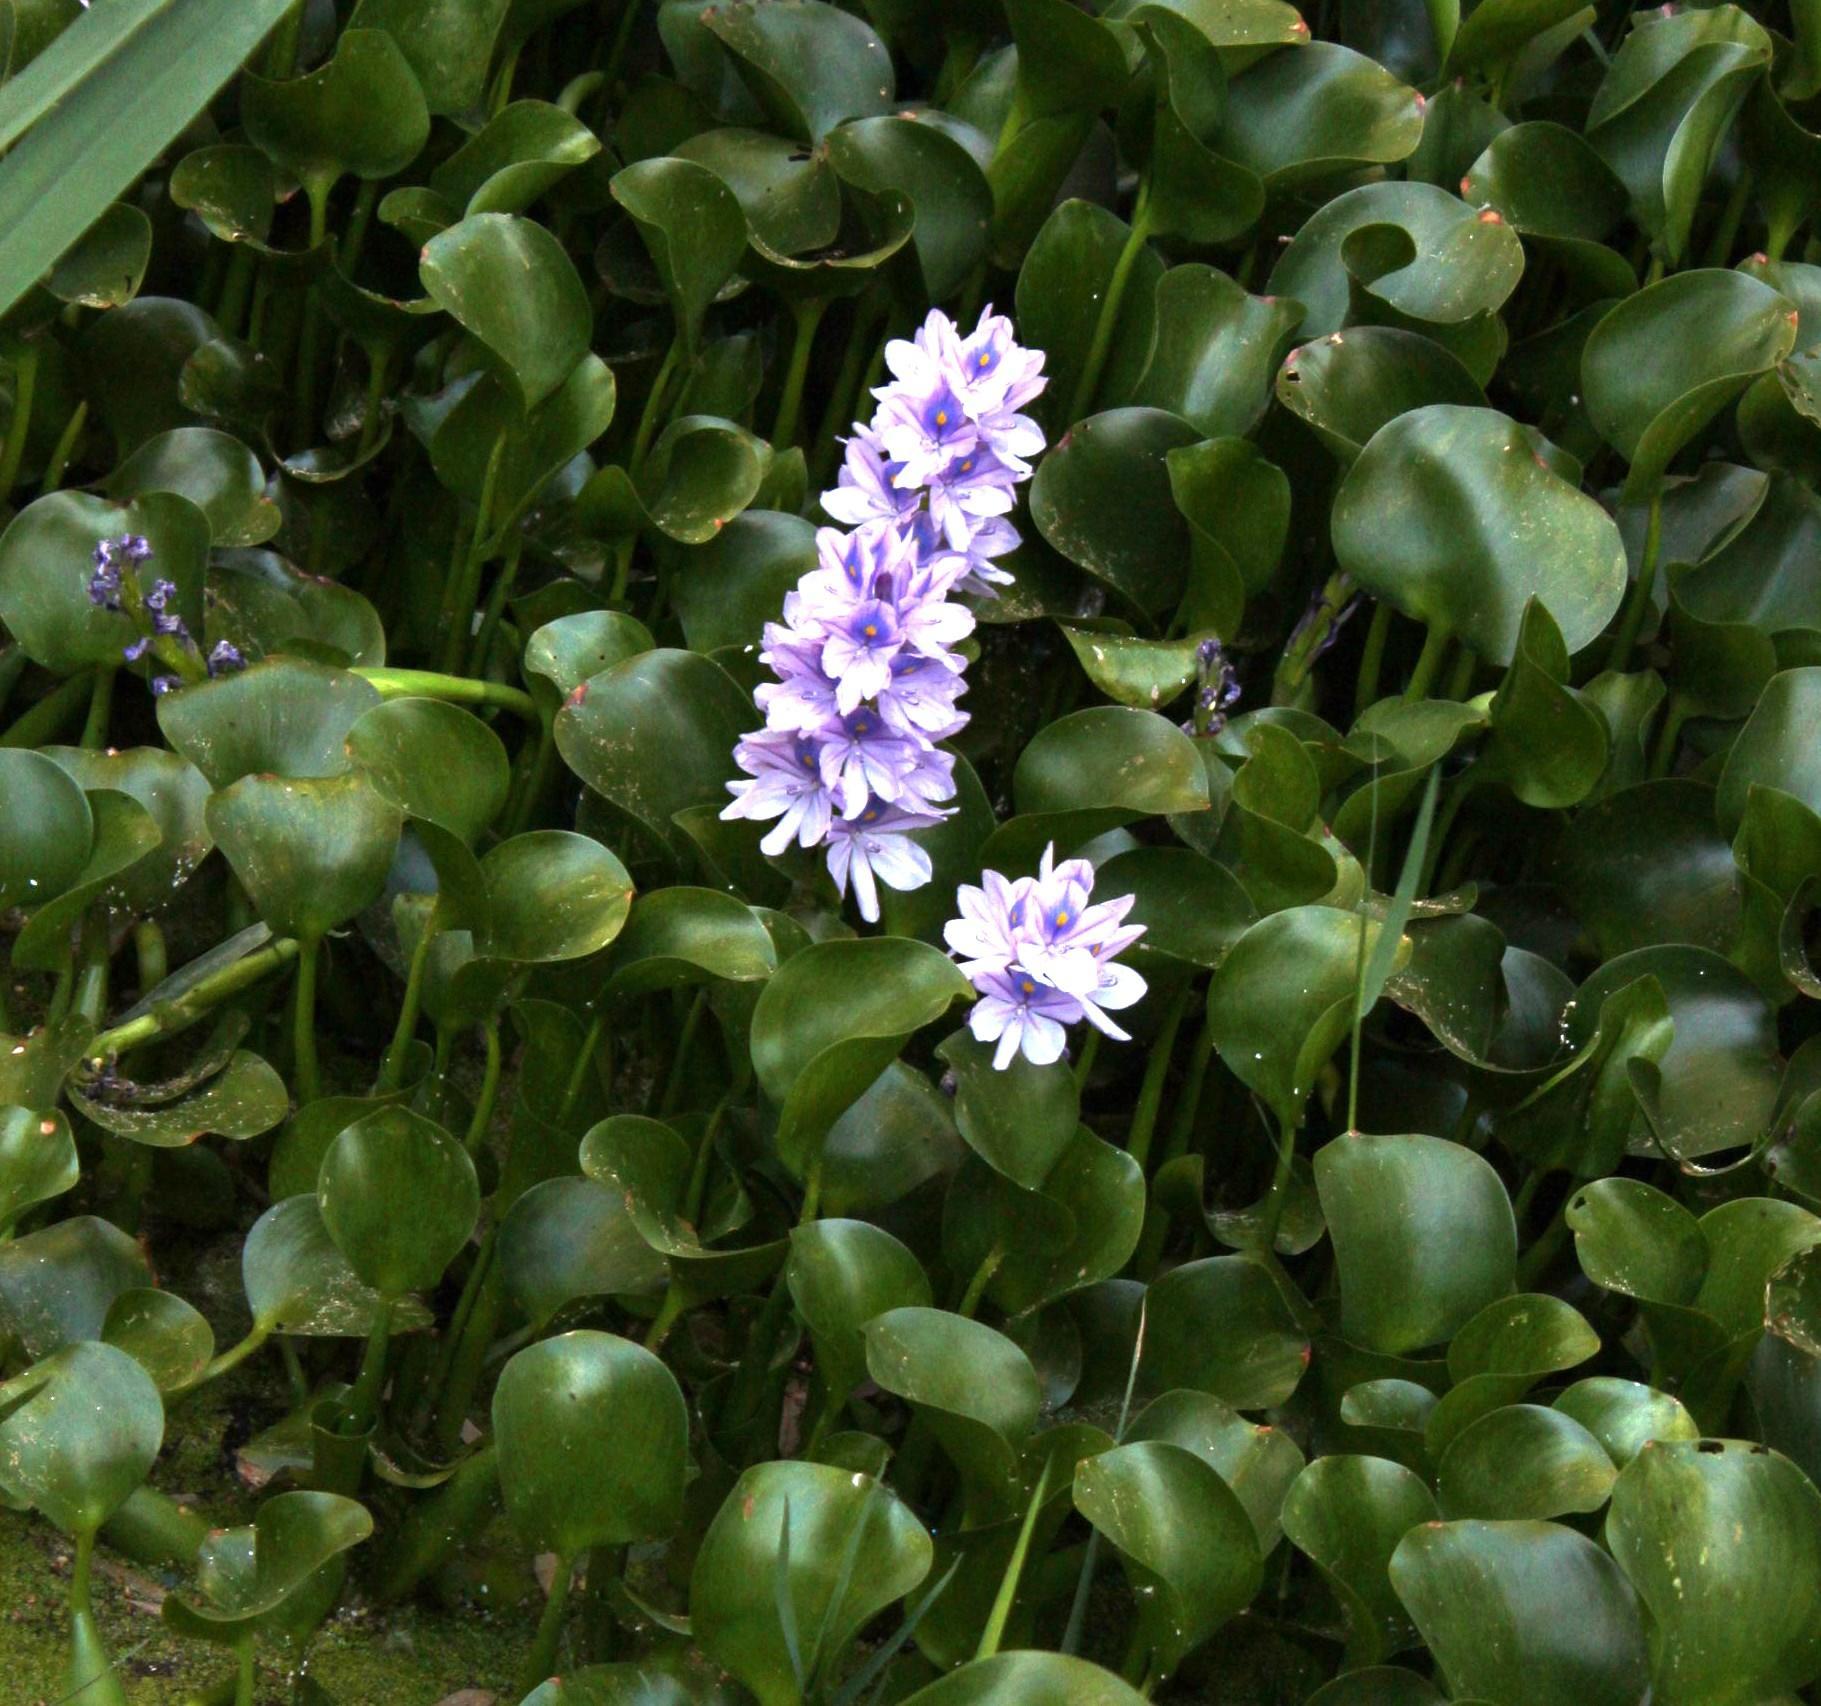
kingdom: Plantae
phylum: Tracheophyta
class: Liliopsida
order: Commelinales
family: Pontederiaceae
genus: Pontederia
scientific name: Pontederia crassipes
